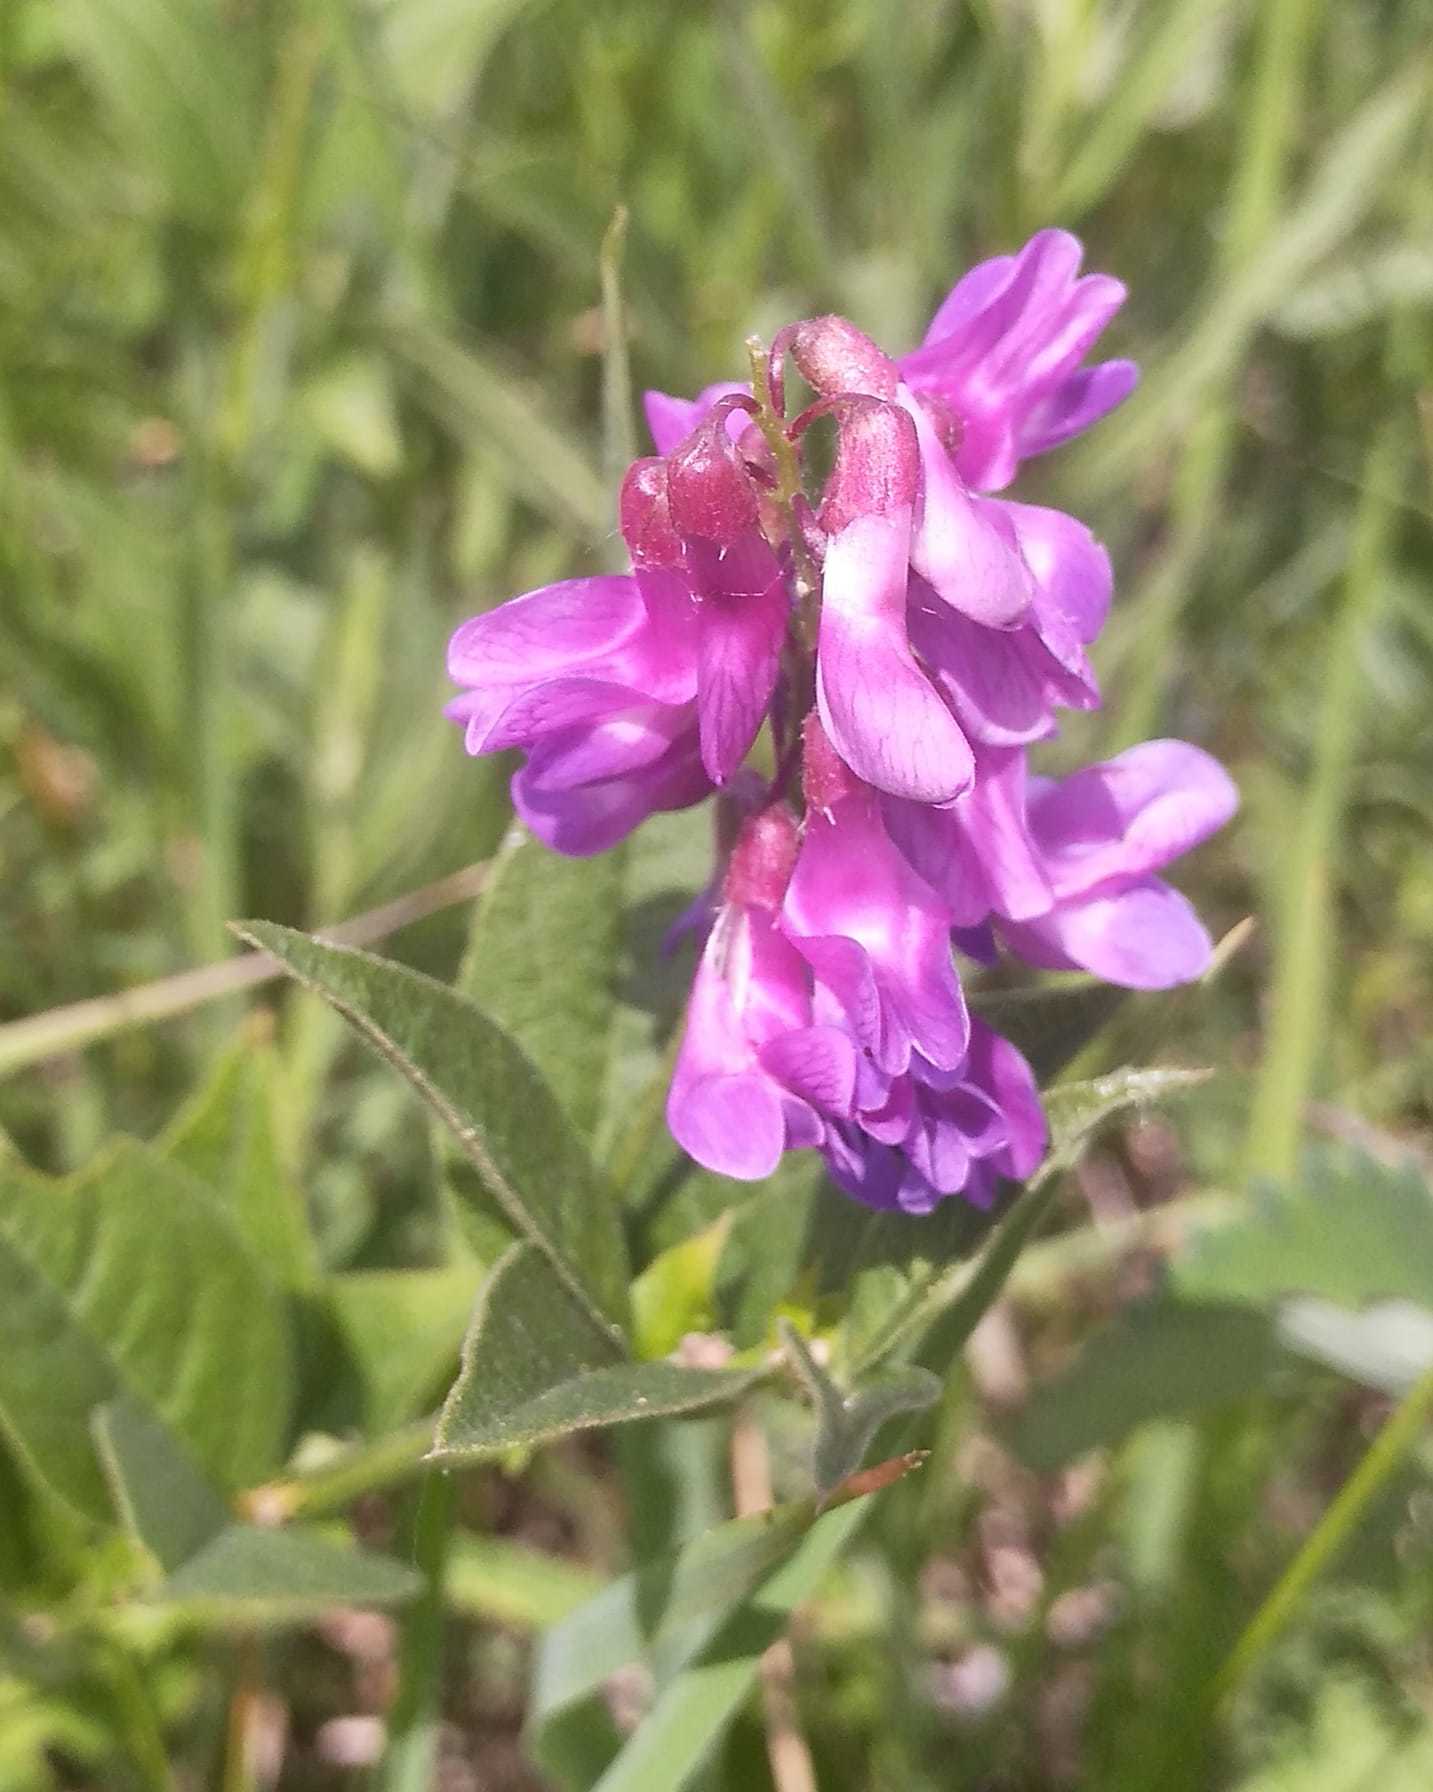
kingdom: Plantae
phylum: Tracheophyta
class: Magnoliopsida
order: Fabales
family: Fabaceae
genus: Vicia
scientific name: Vicia unijuga
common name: Two-leaf vetch
